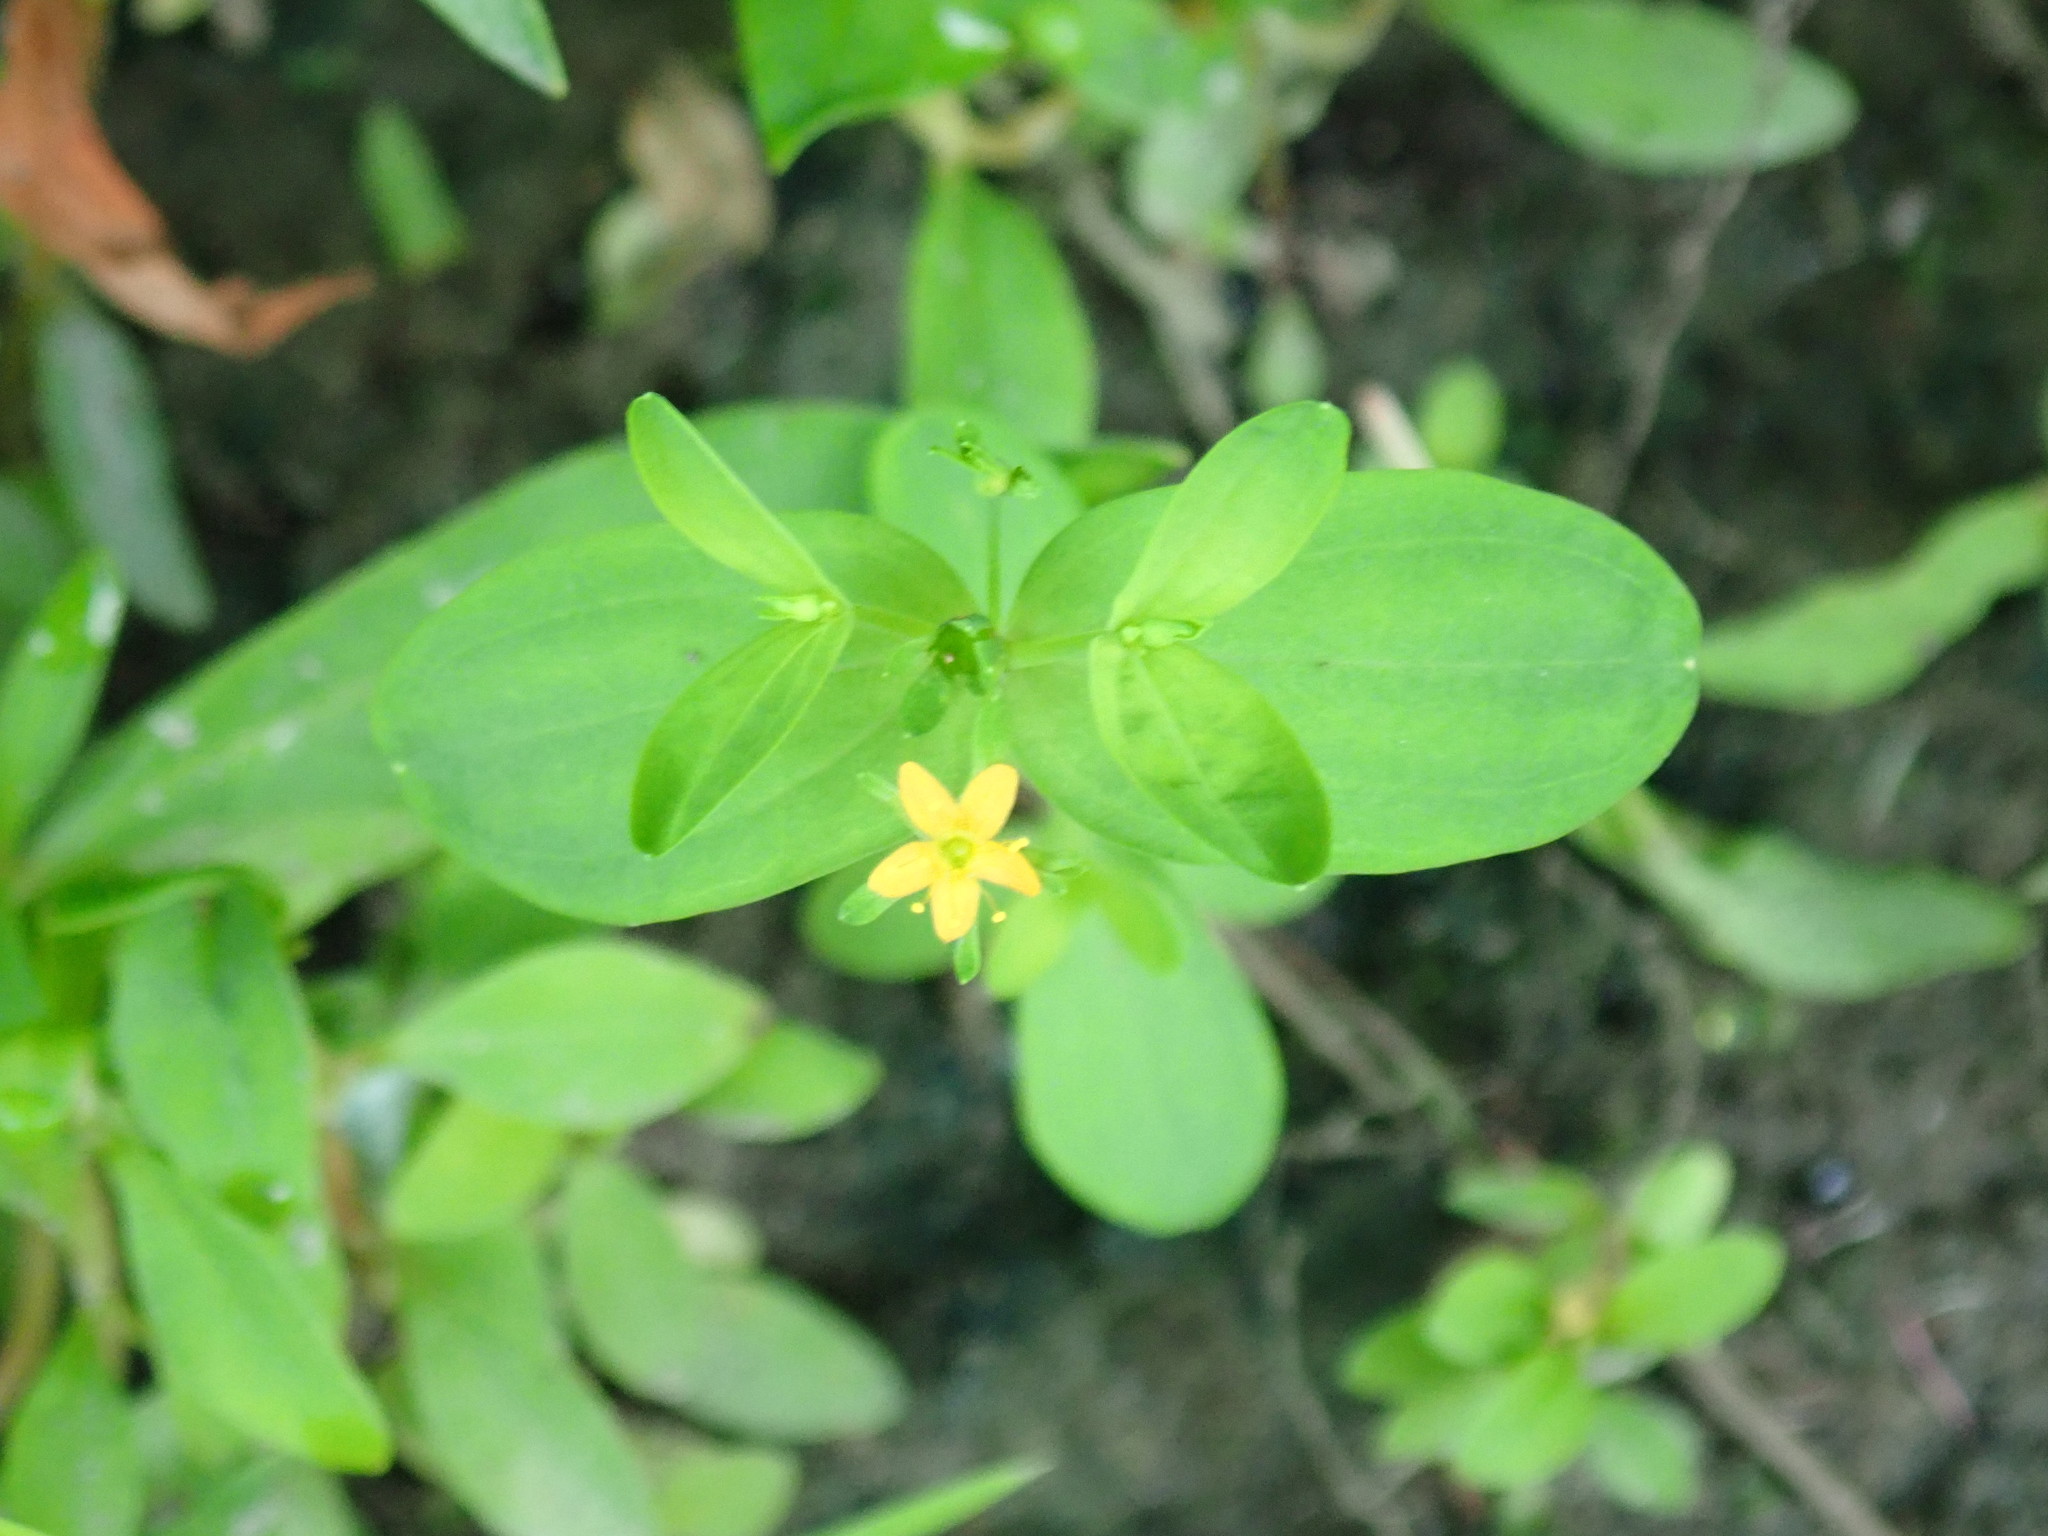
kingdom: Plantae
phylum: Tracheophyta
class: Magnoliopsida
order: Malpighiales
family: Hypericaceae
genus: Hypericum
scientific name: Hypericum mutilum
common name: Dwarf st. john's-wort
